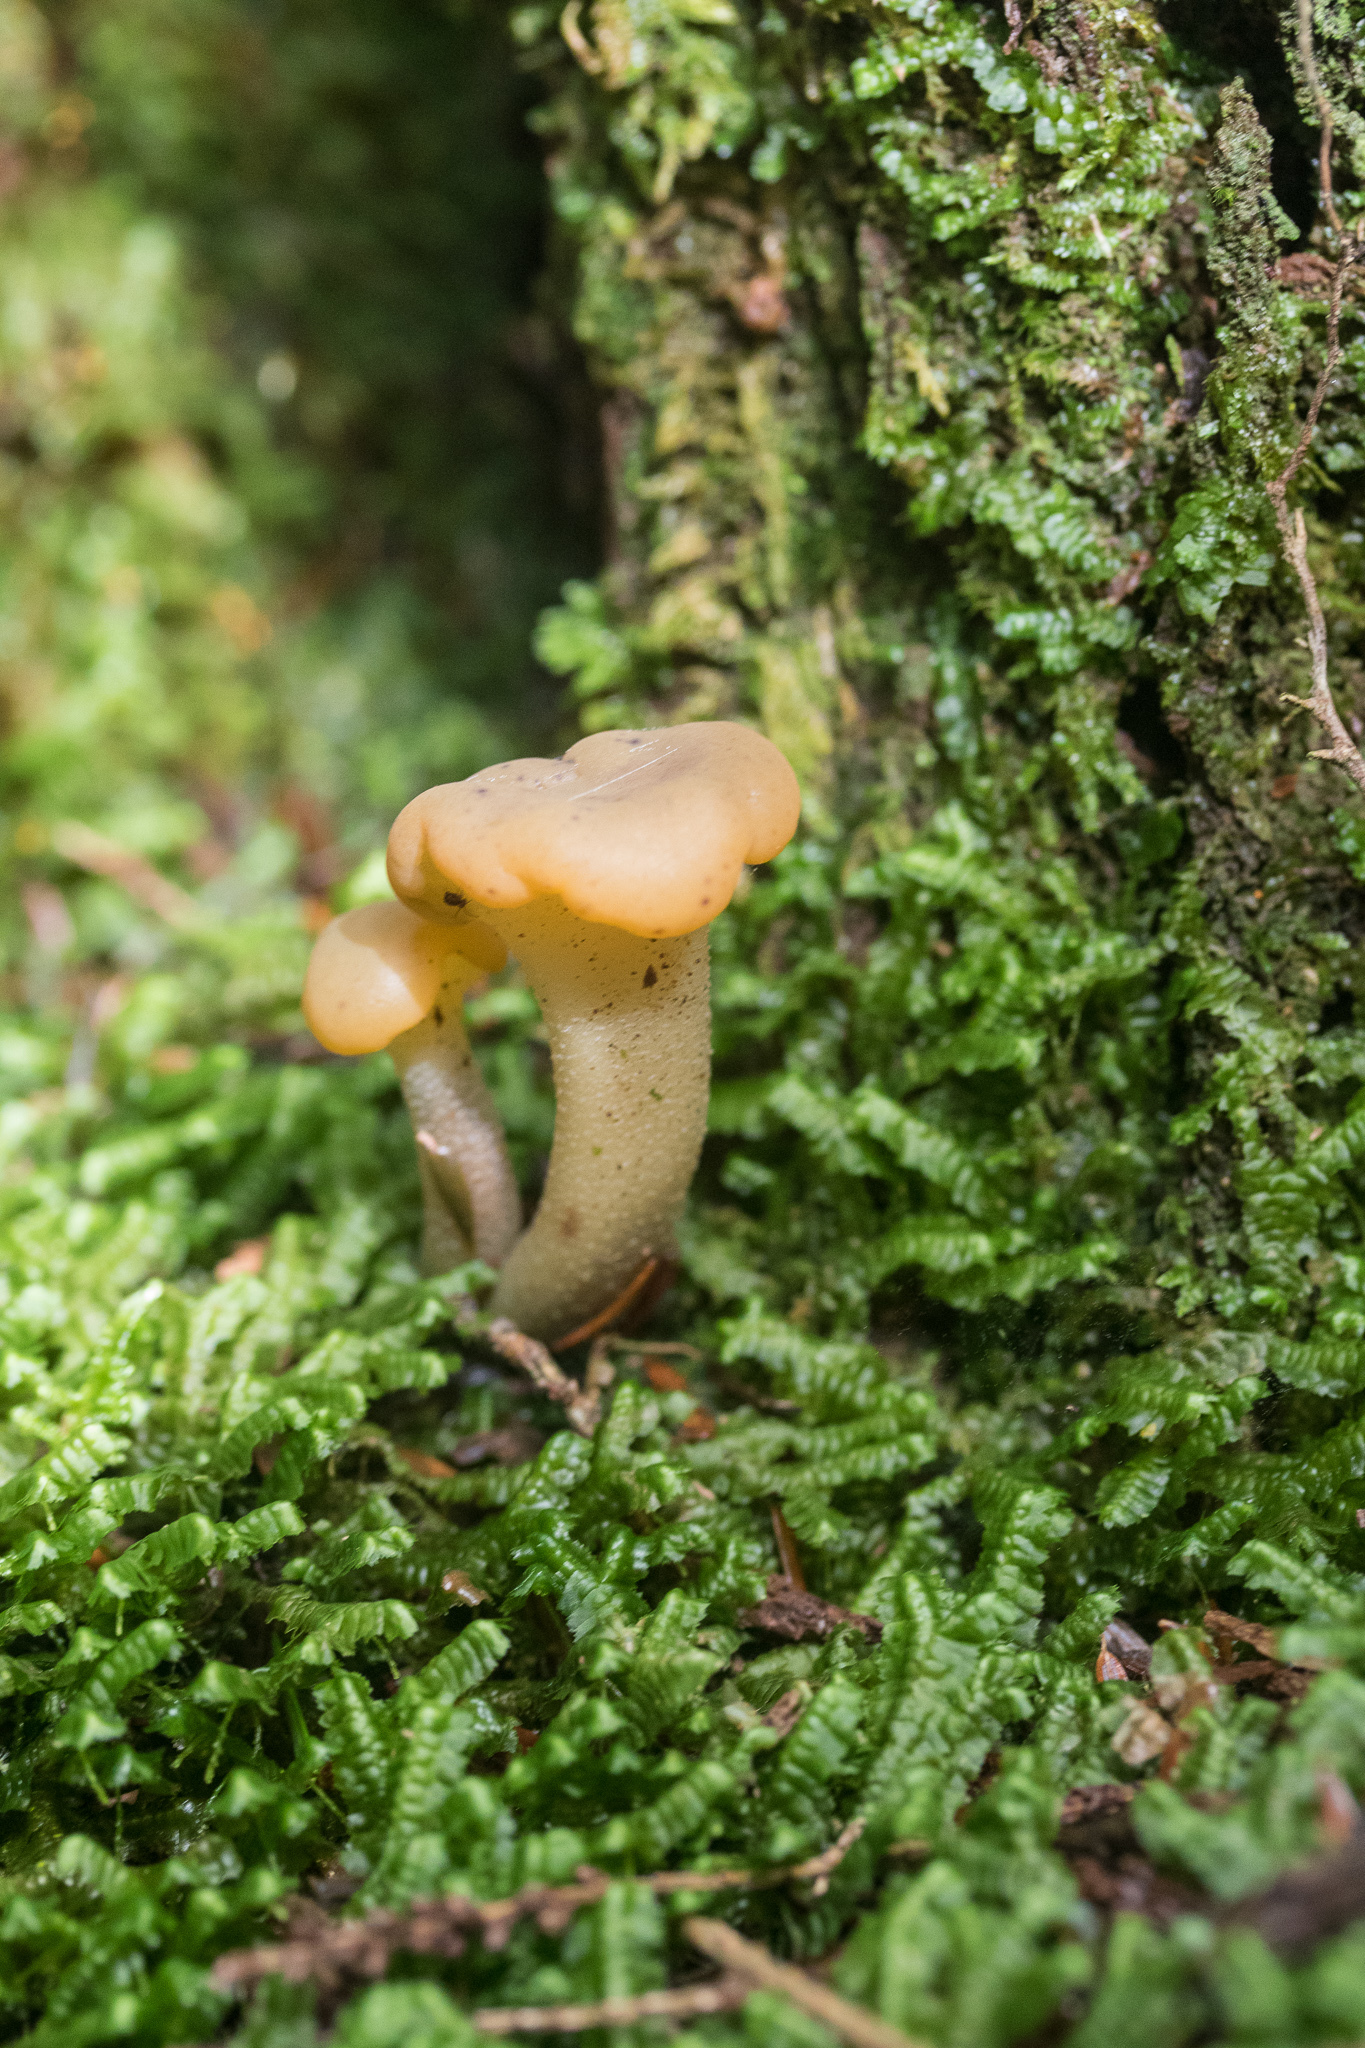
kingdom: Fungi
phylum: Ascomycota
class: Leotiomycetes
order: Leotiales
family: Leotiaceae
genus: Leotia
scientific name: Leotia lubrica
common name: Jellybaby
